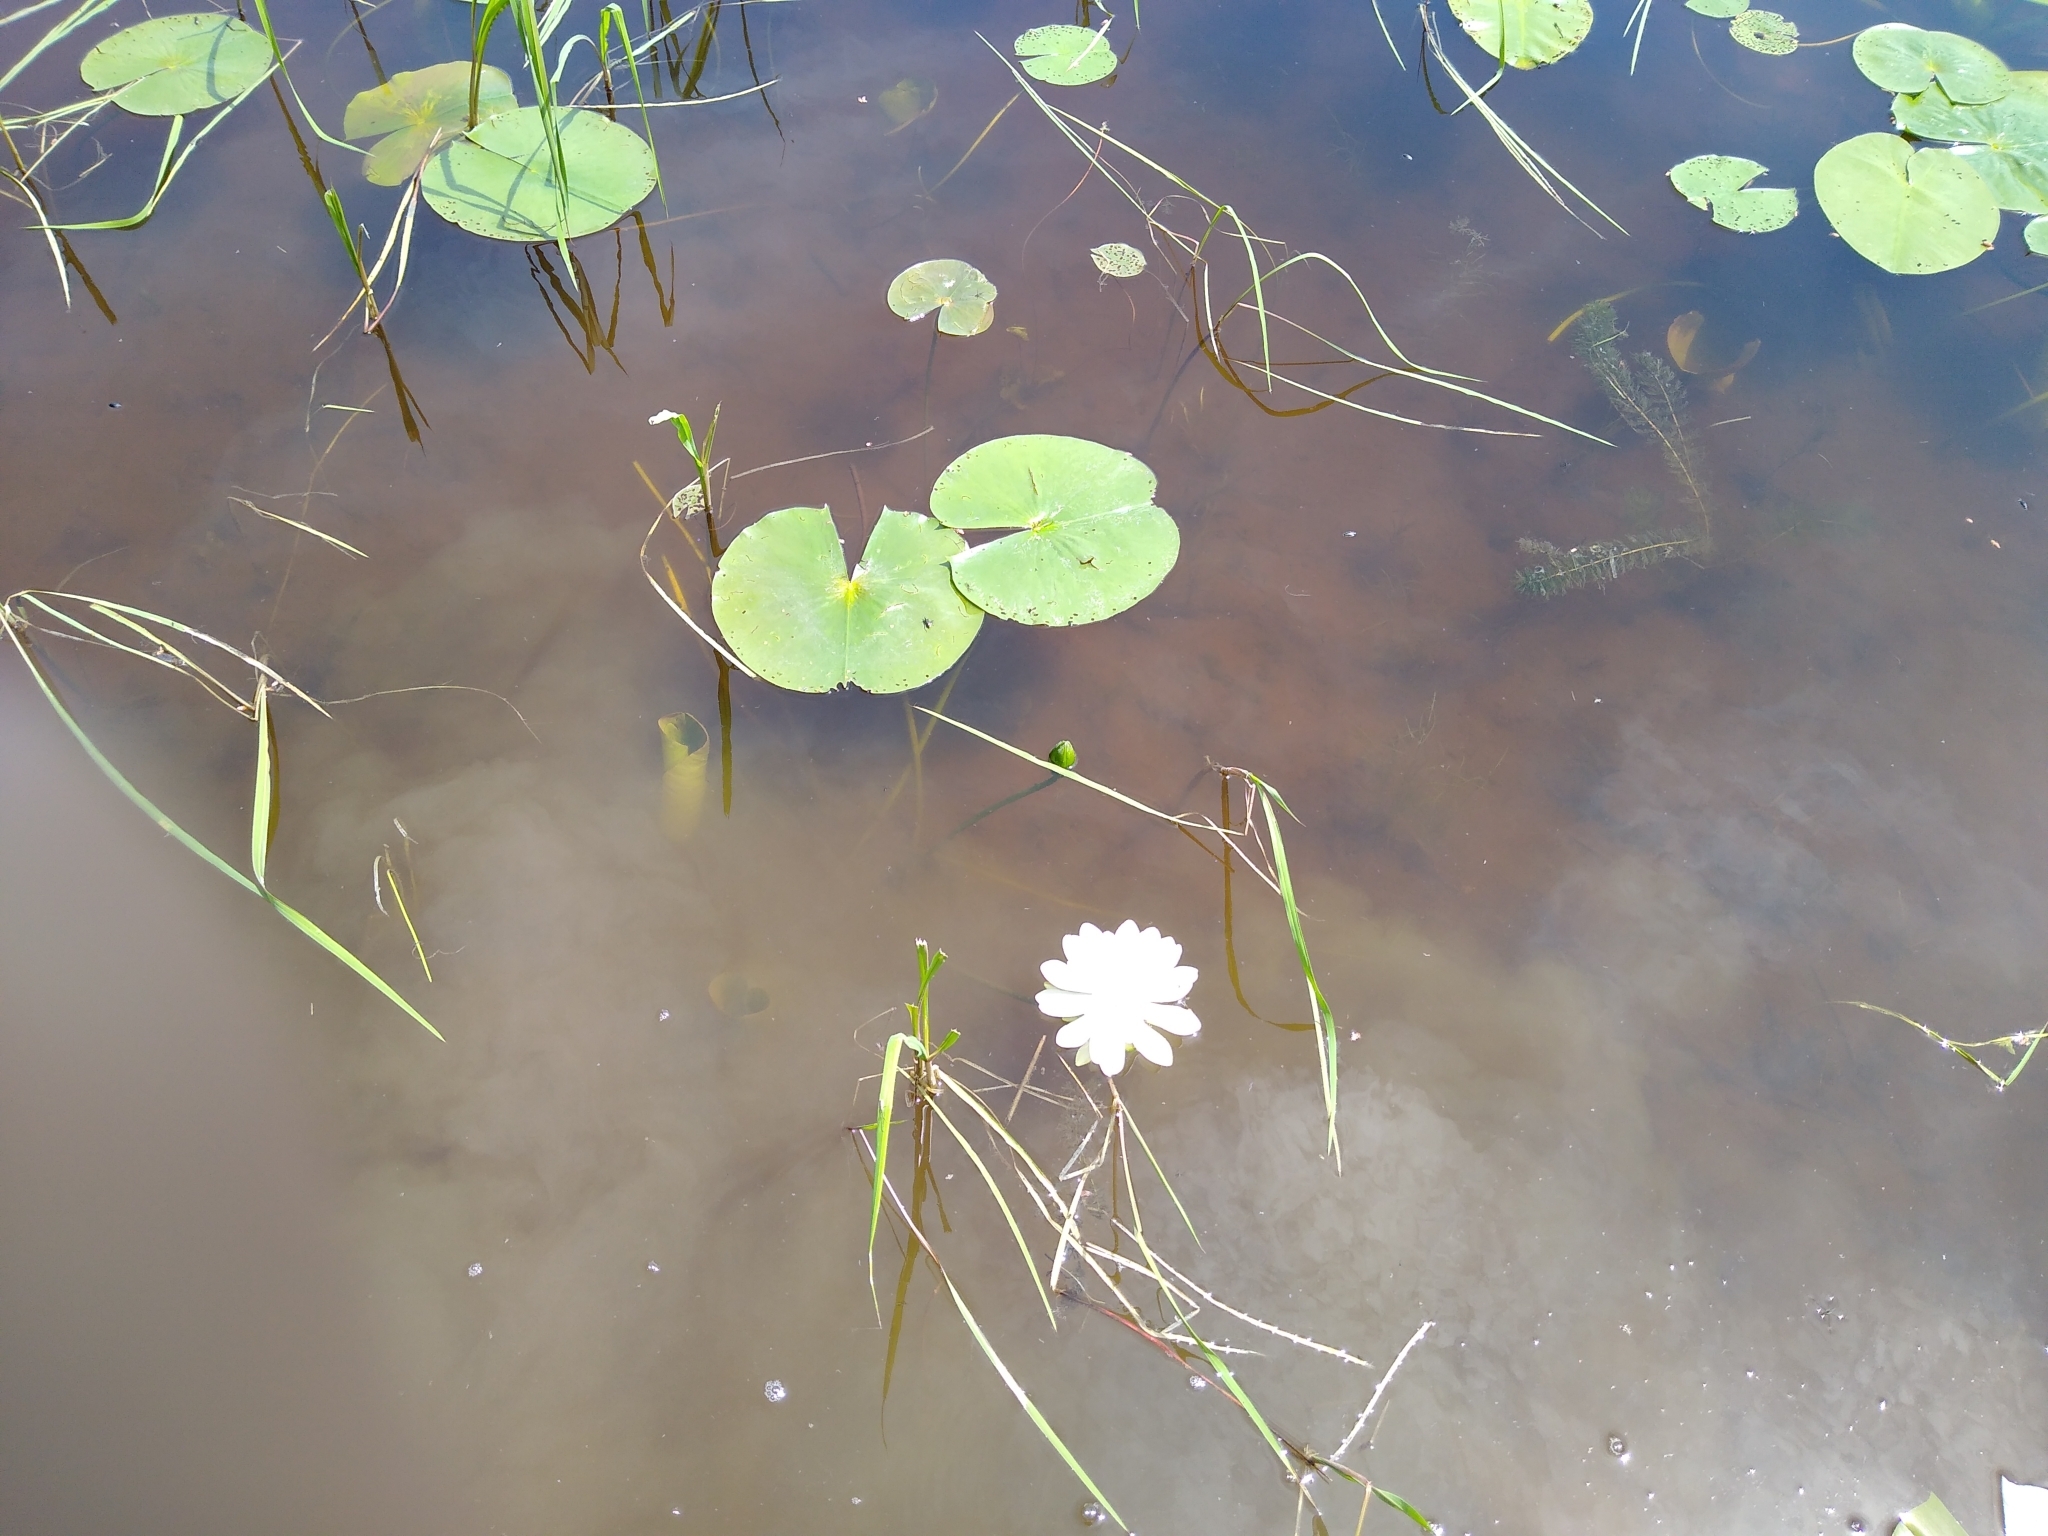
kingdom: Plantae
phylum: Tracheophyta
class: Magnoliopsida
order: Nymphaeales
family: Nymphaeaceae
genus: Nymphaea
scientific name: Nymphaea odorata
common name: Fragrant water-lily
